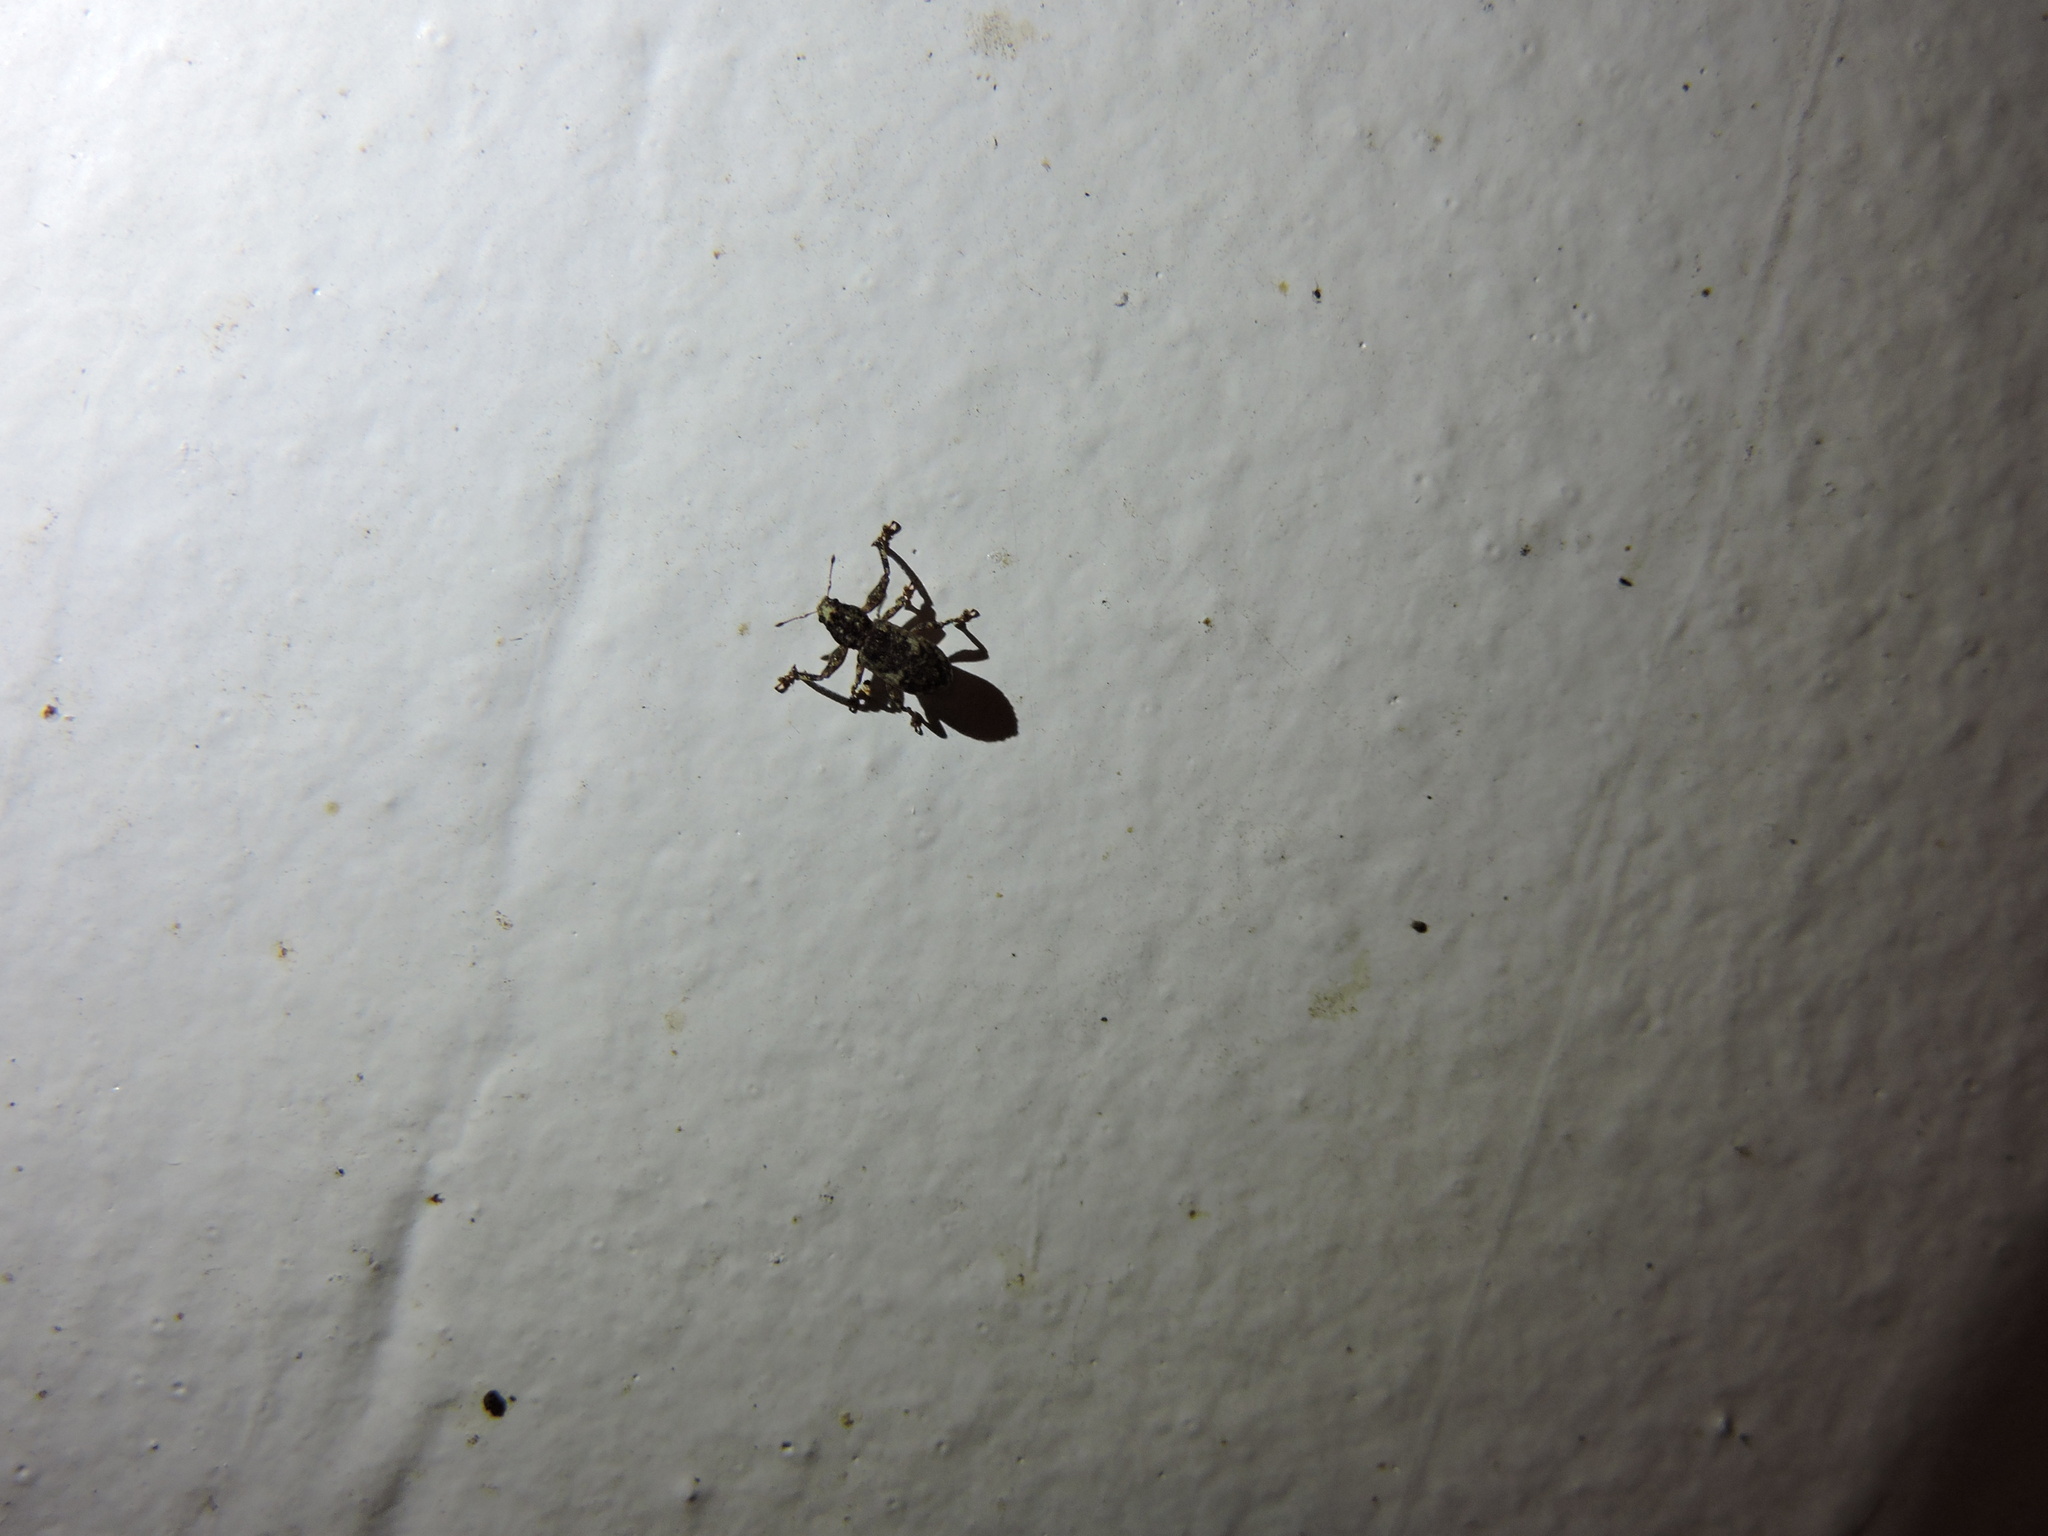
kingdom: Animalia
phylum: Arthropoda
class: Insecta
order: Coleoptera
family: Curculionidae
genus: Pandeleteius
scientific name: Pandeleteius hilaris
